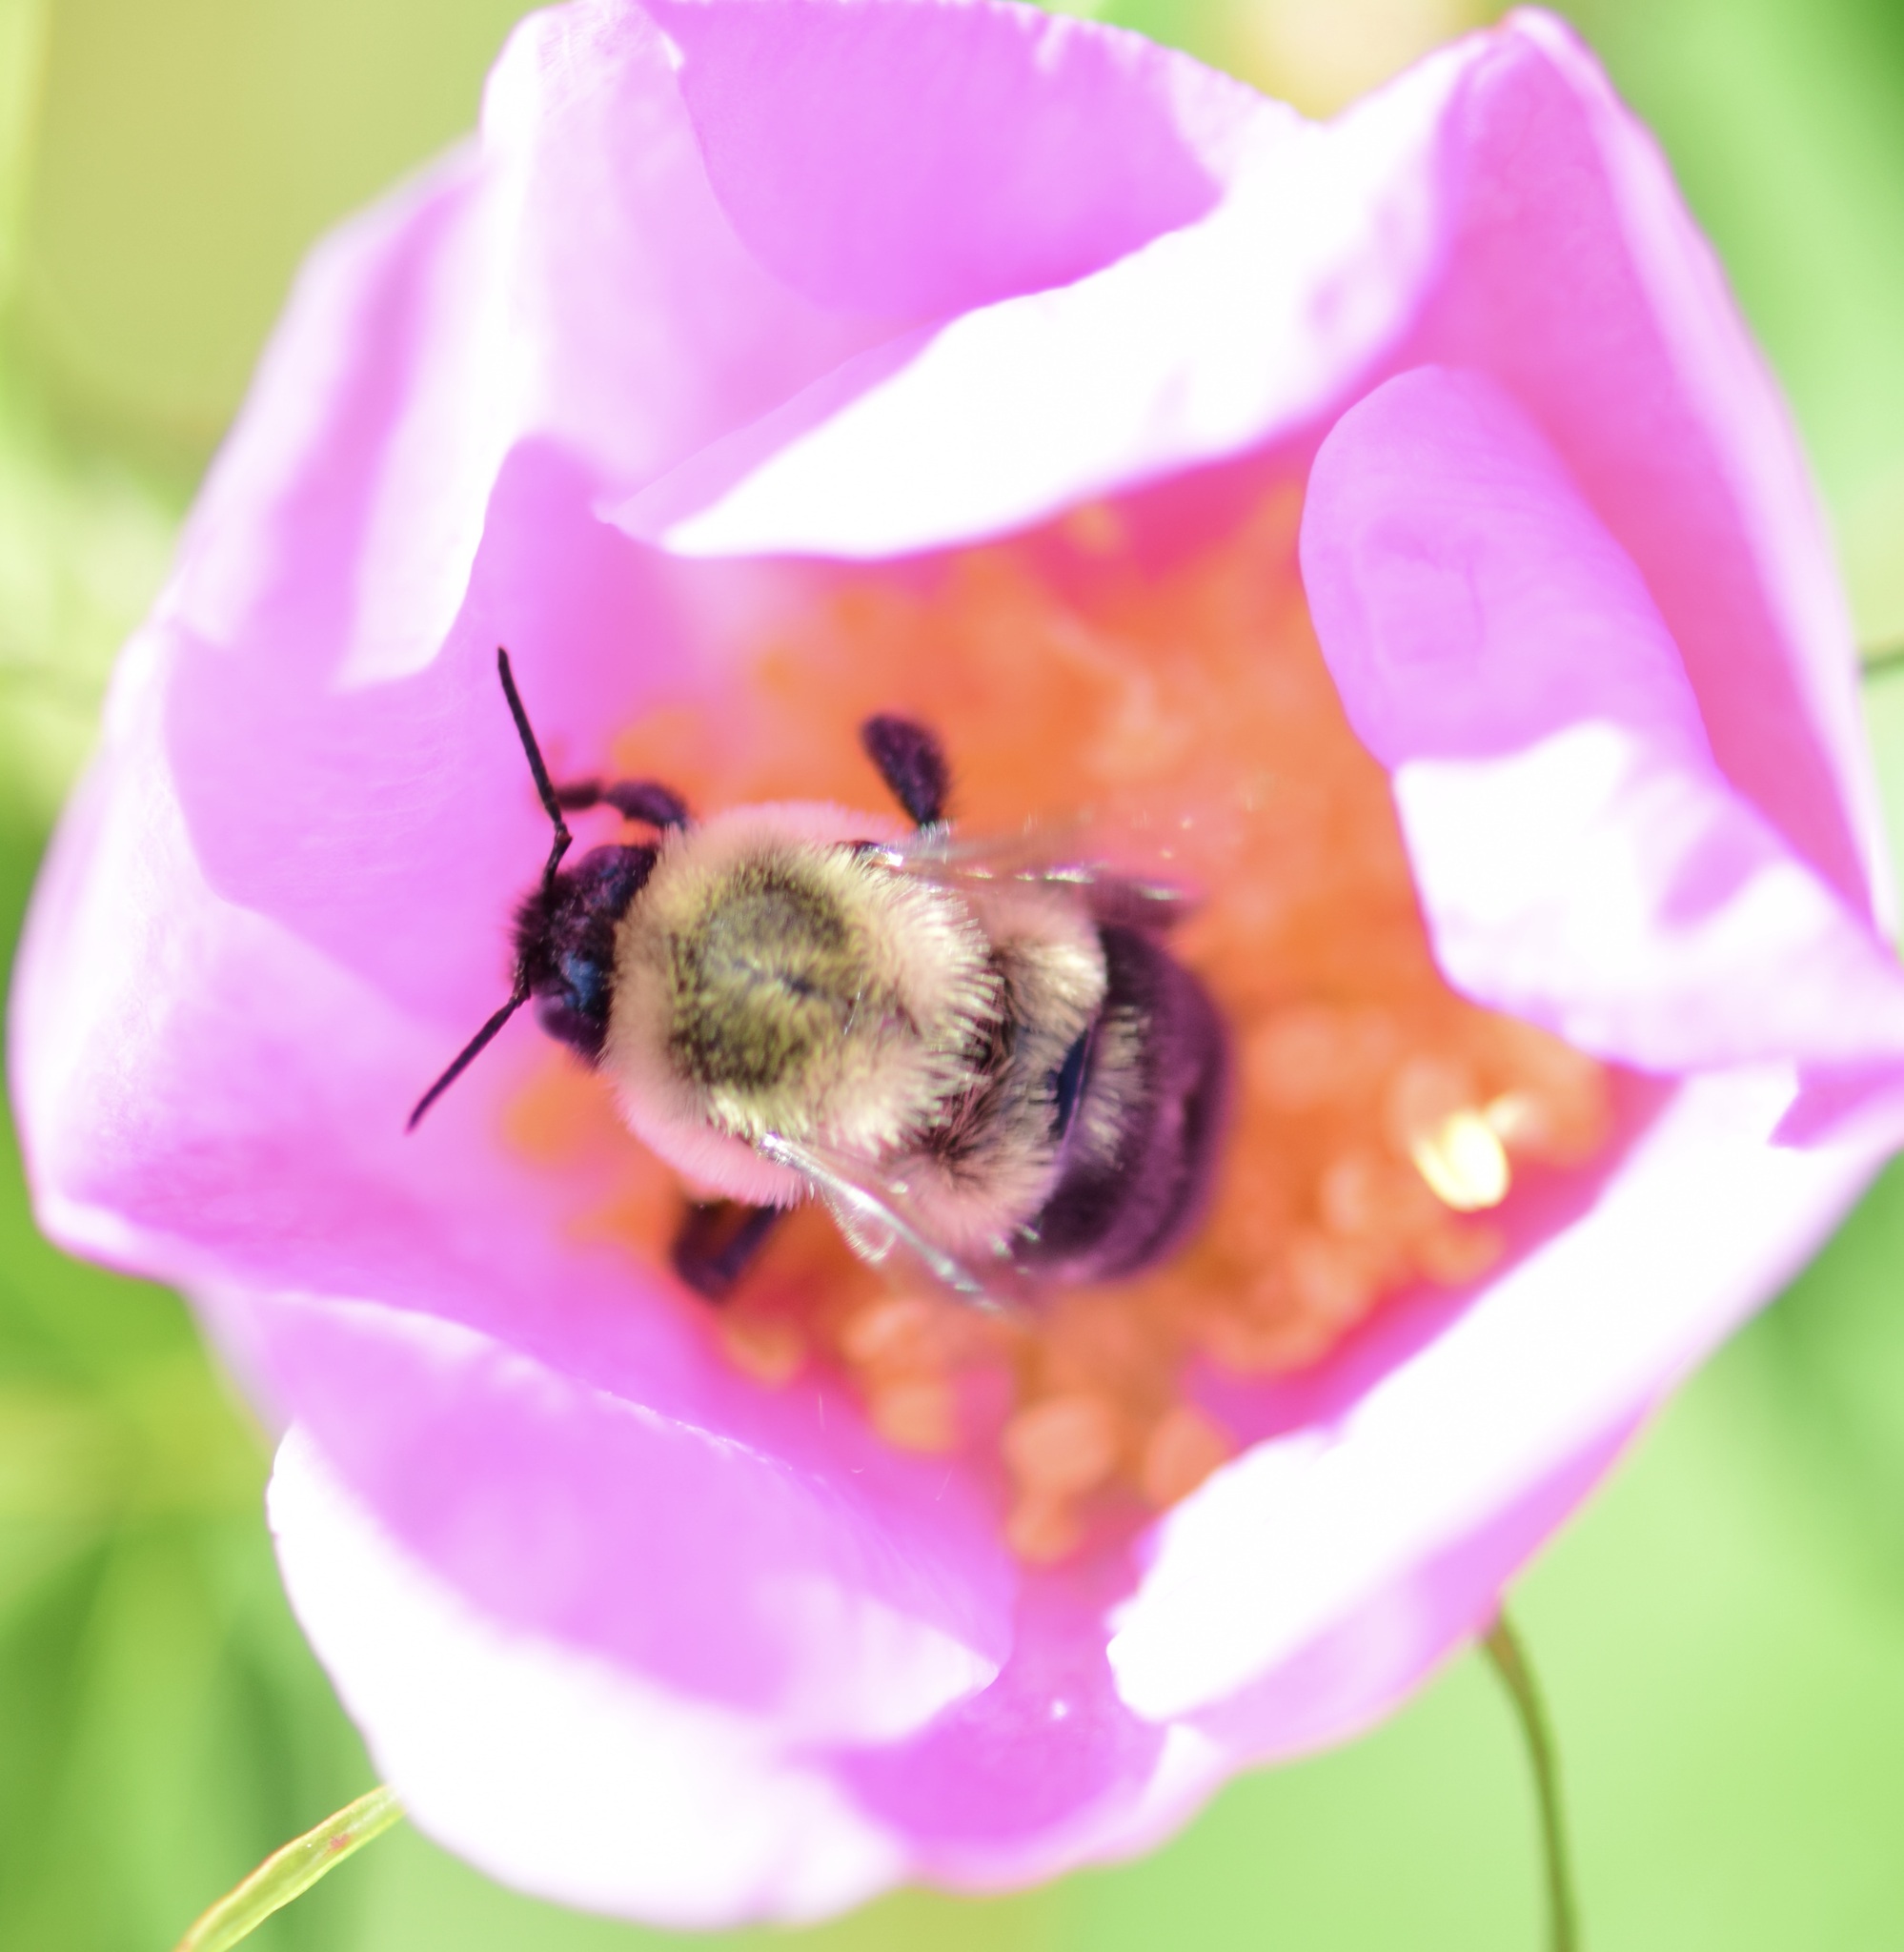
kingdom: Animalia
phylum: Arthropoda
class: Insecta
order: Hymenoptera
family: Apidae
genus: Bombus
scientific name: Bombus impatiens
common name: Common eastern bumble bee
